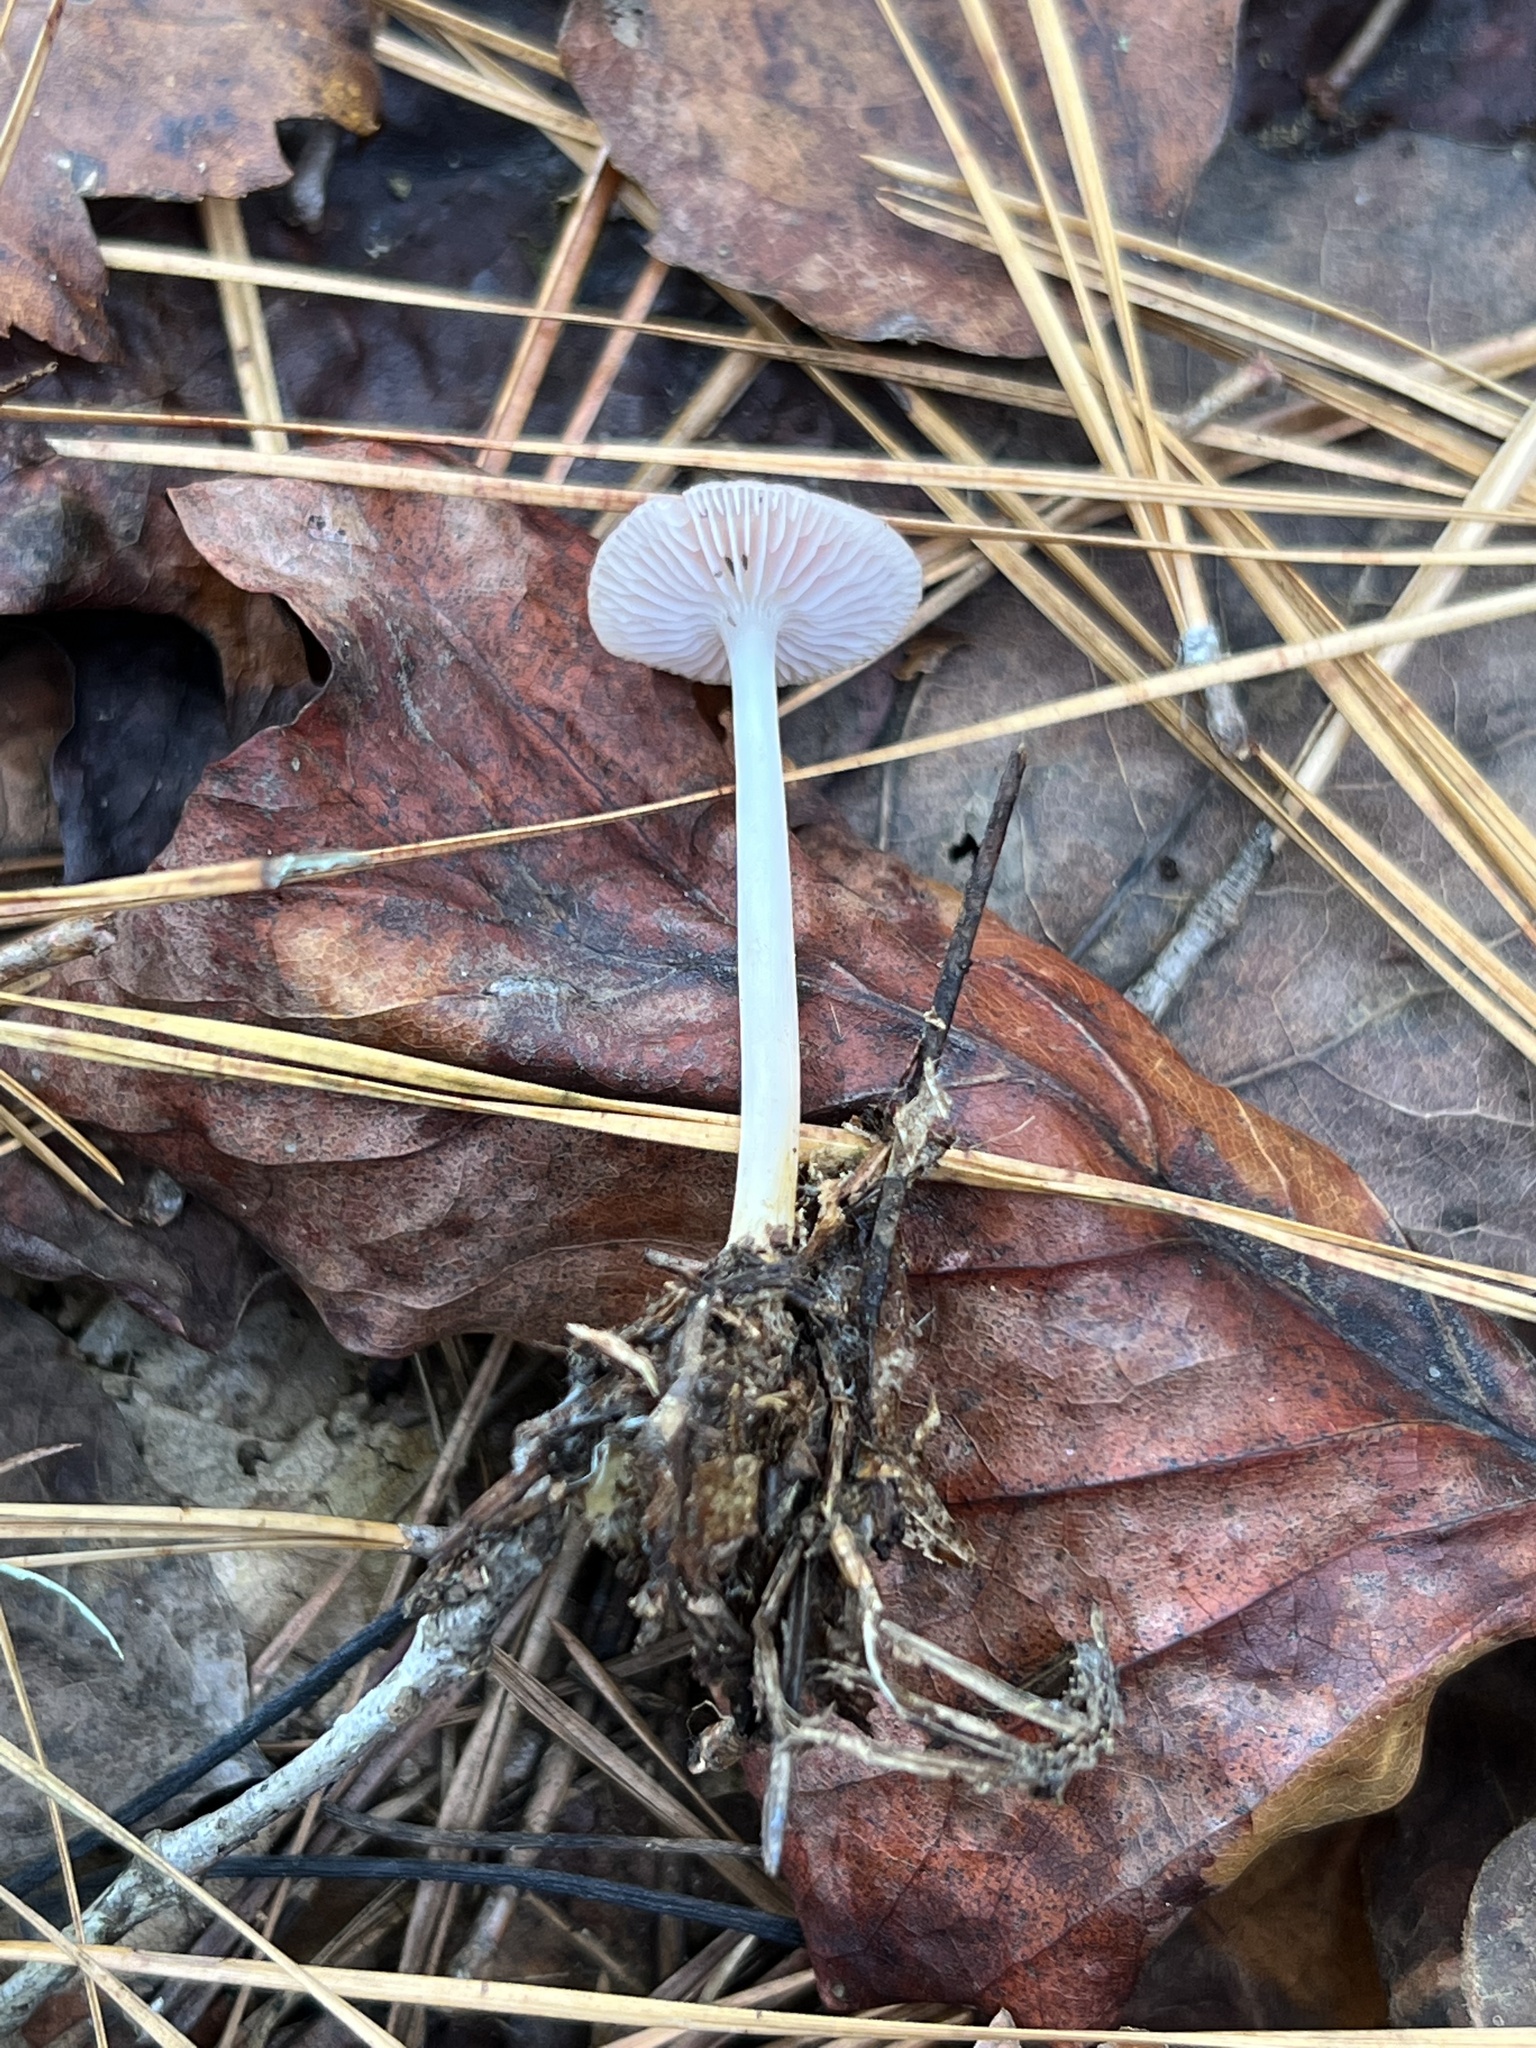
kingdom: Fungi
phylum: Basidiomycota
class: Agaricomycetes
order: Agaricales
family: Mycenaceae
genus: Mycena
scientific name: Mycena pura
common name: Lilac bonnet
